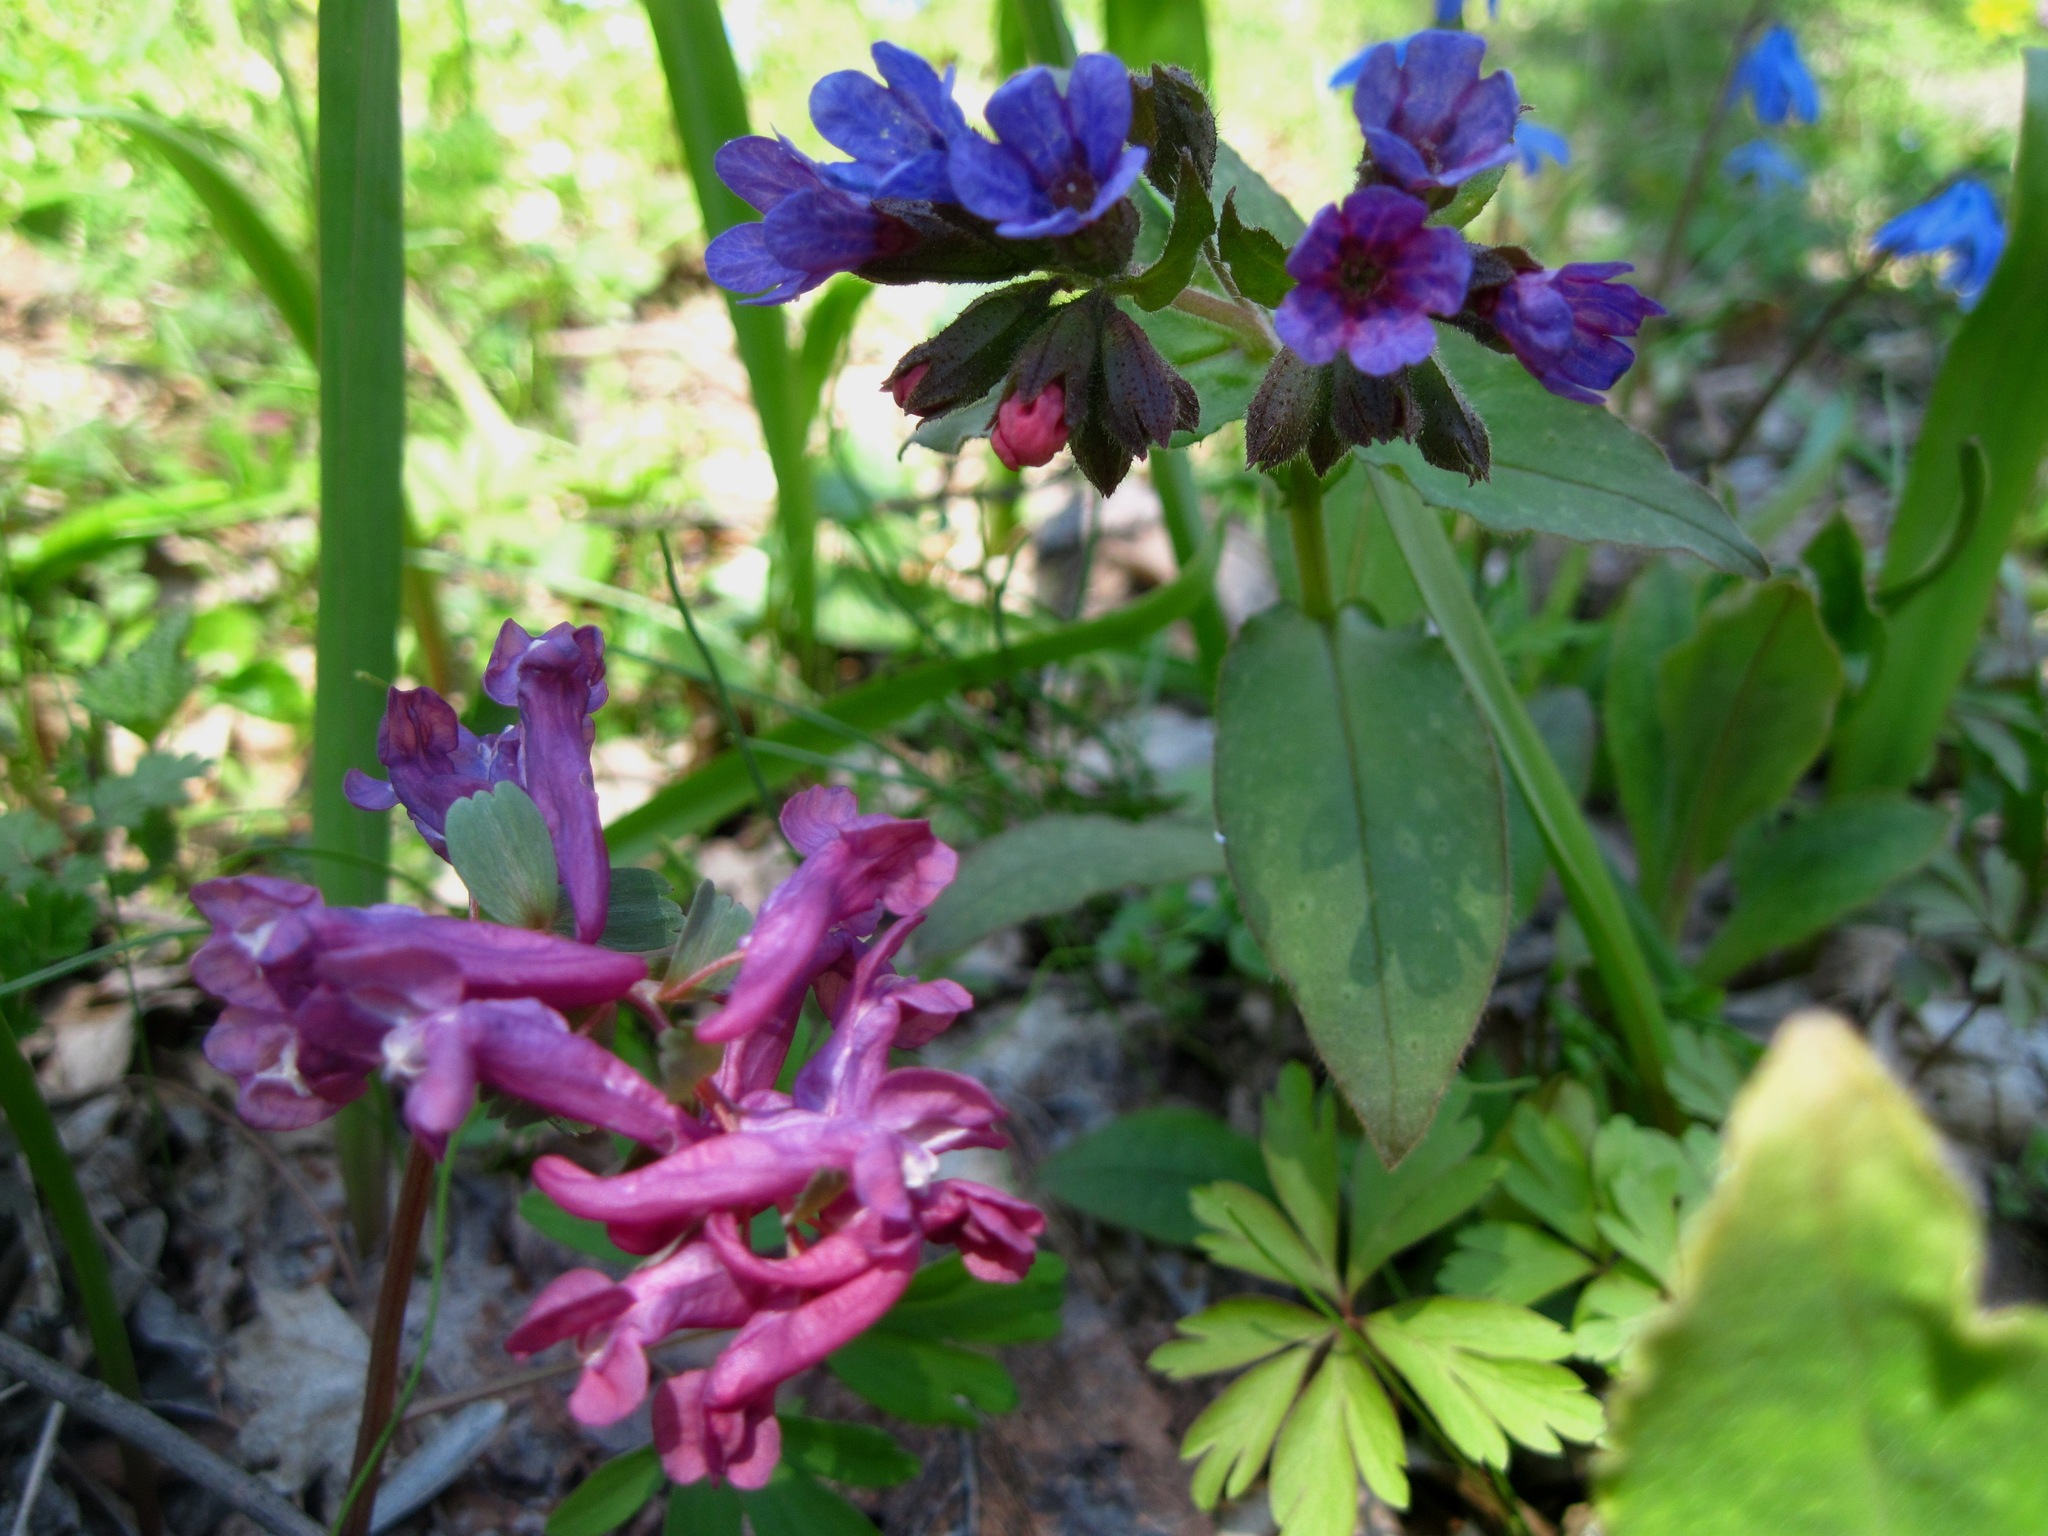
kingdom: Plantae
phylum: Tracheophyta
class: Magnoliopsida
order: Ranunculales
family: Papaveraceae
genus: Corydalis
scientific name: Corydalis solida
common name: Bird-in-a-bush
